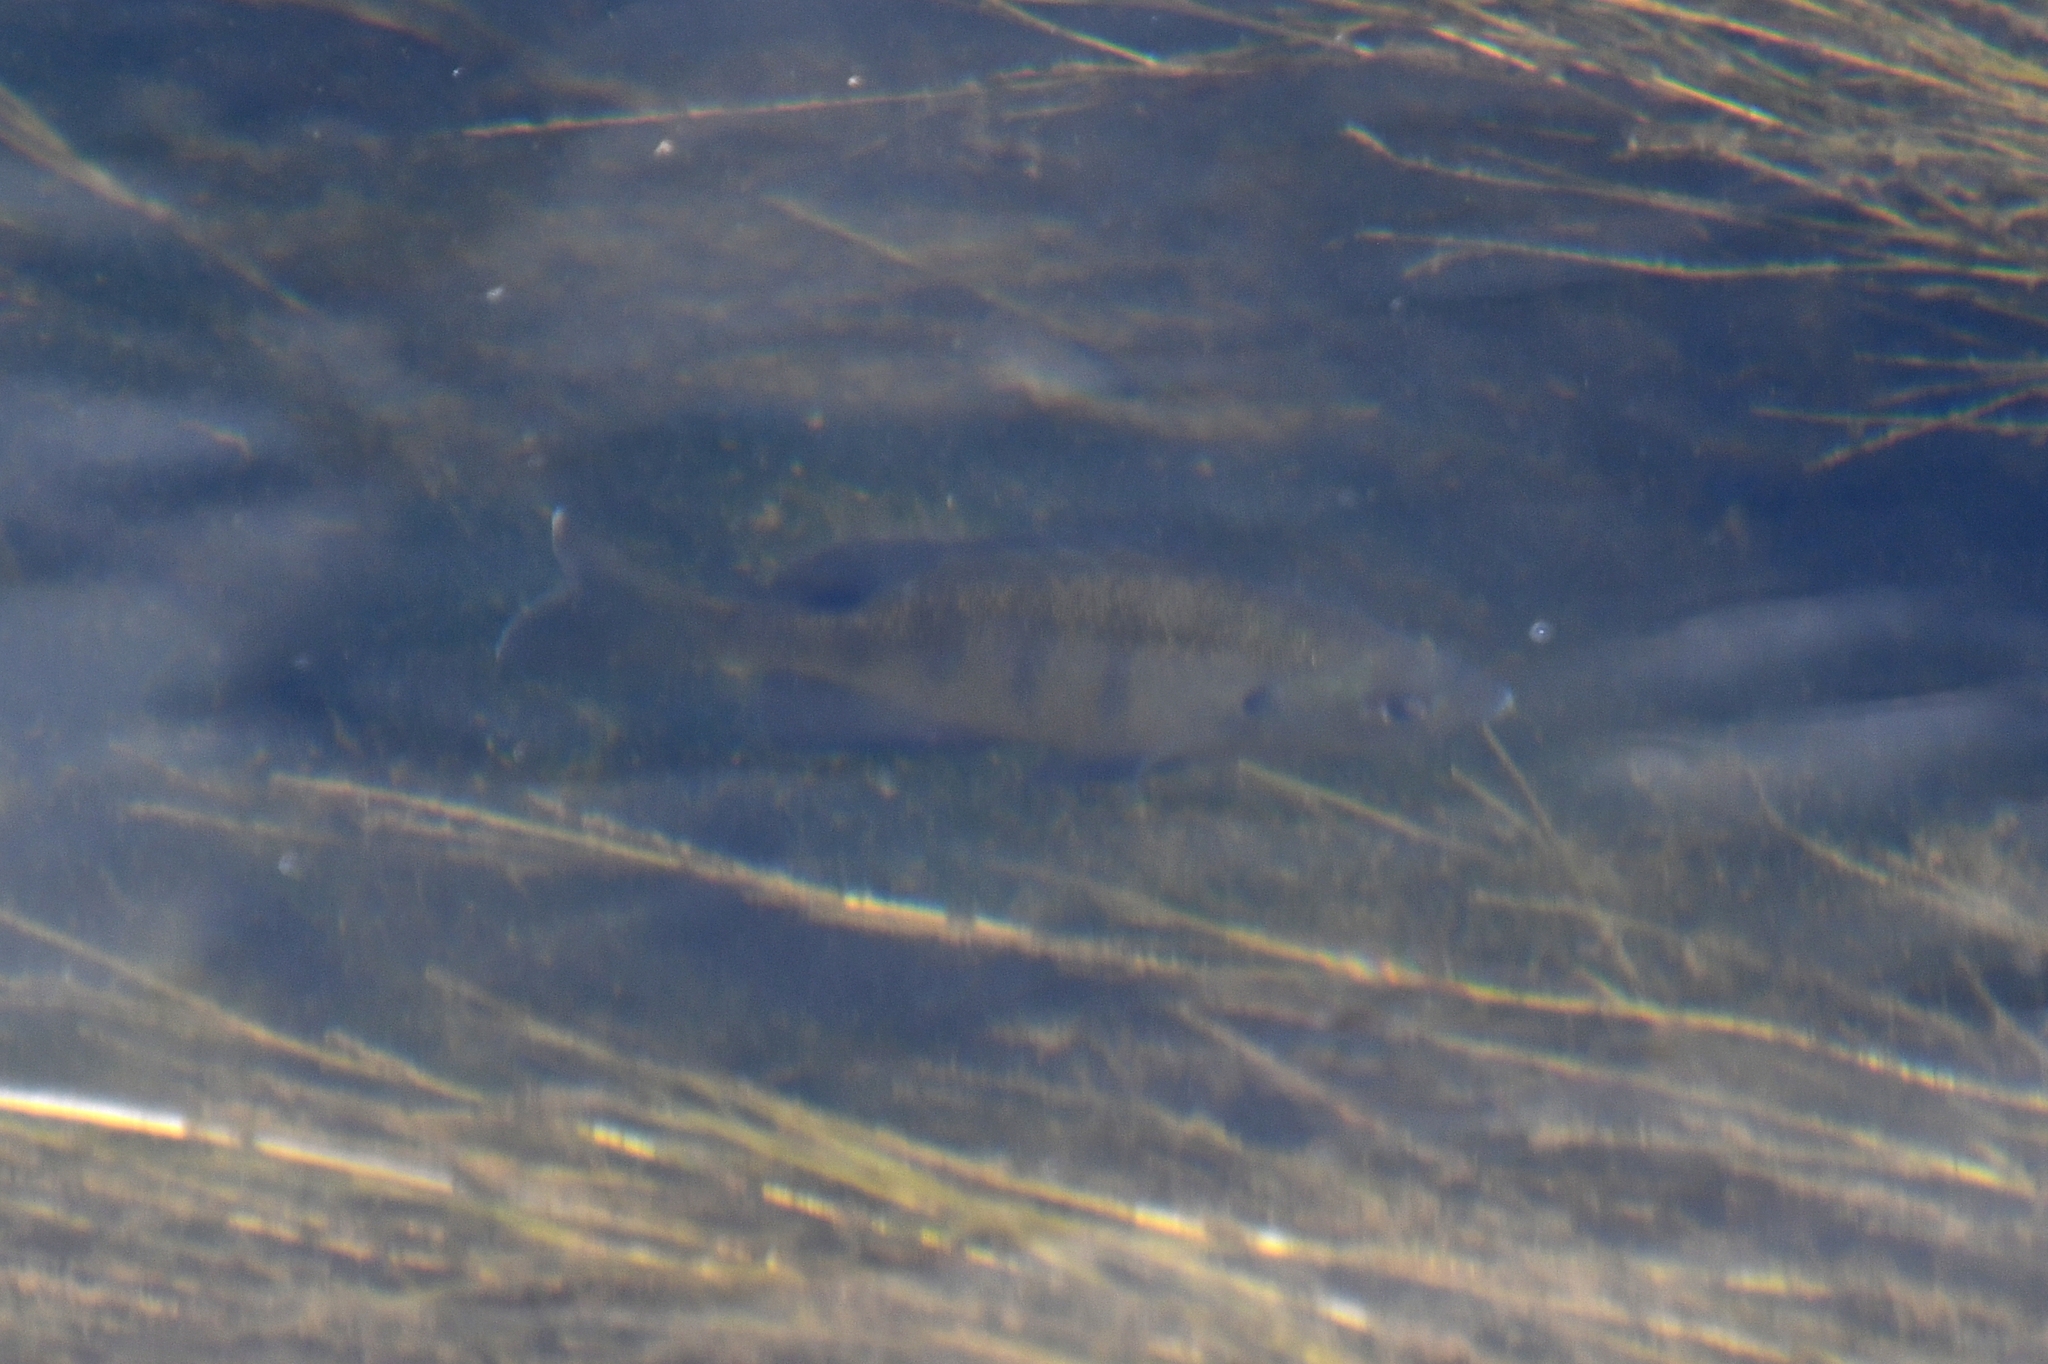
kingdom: Animalia
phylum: Chordata
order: Perciformes
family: Centrarchidae
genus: Lepomis
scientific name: Lepomis macrochirus
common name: Bluegill
